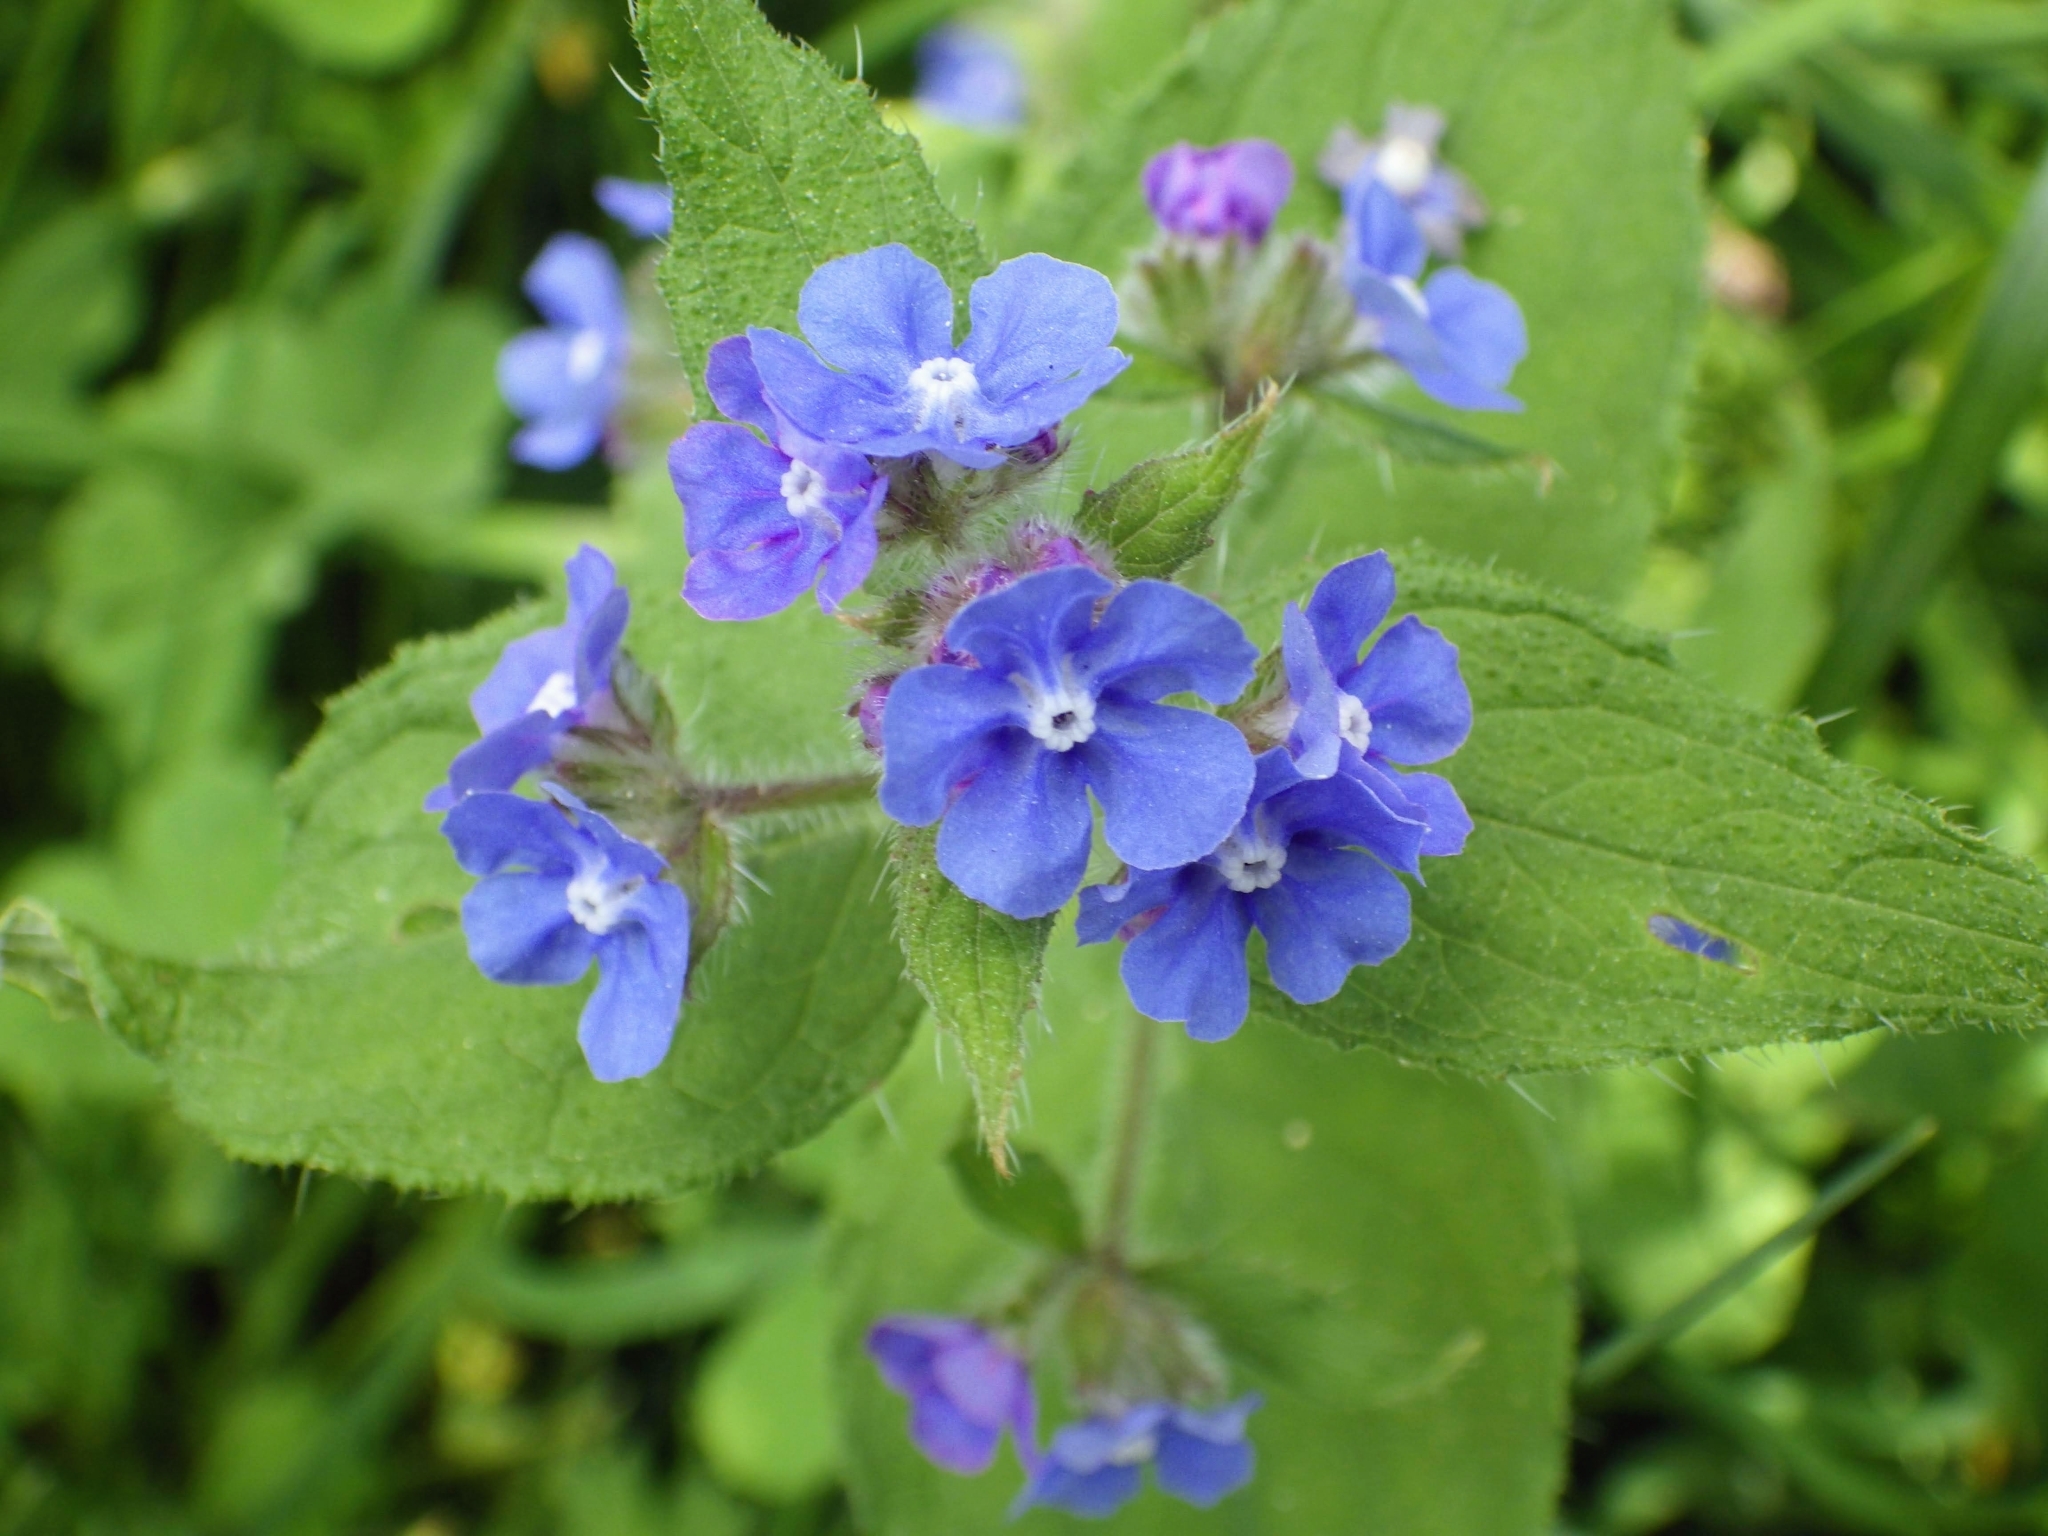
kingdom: Plantae
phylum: Tracheophyta
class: Magnoliopsida
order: Boraginales
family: Boraginaceae
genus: Pentaglottis
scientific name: Pentaglottis sempervirens
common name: Green alkanet
